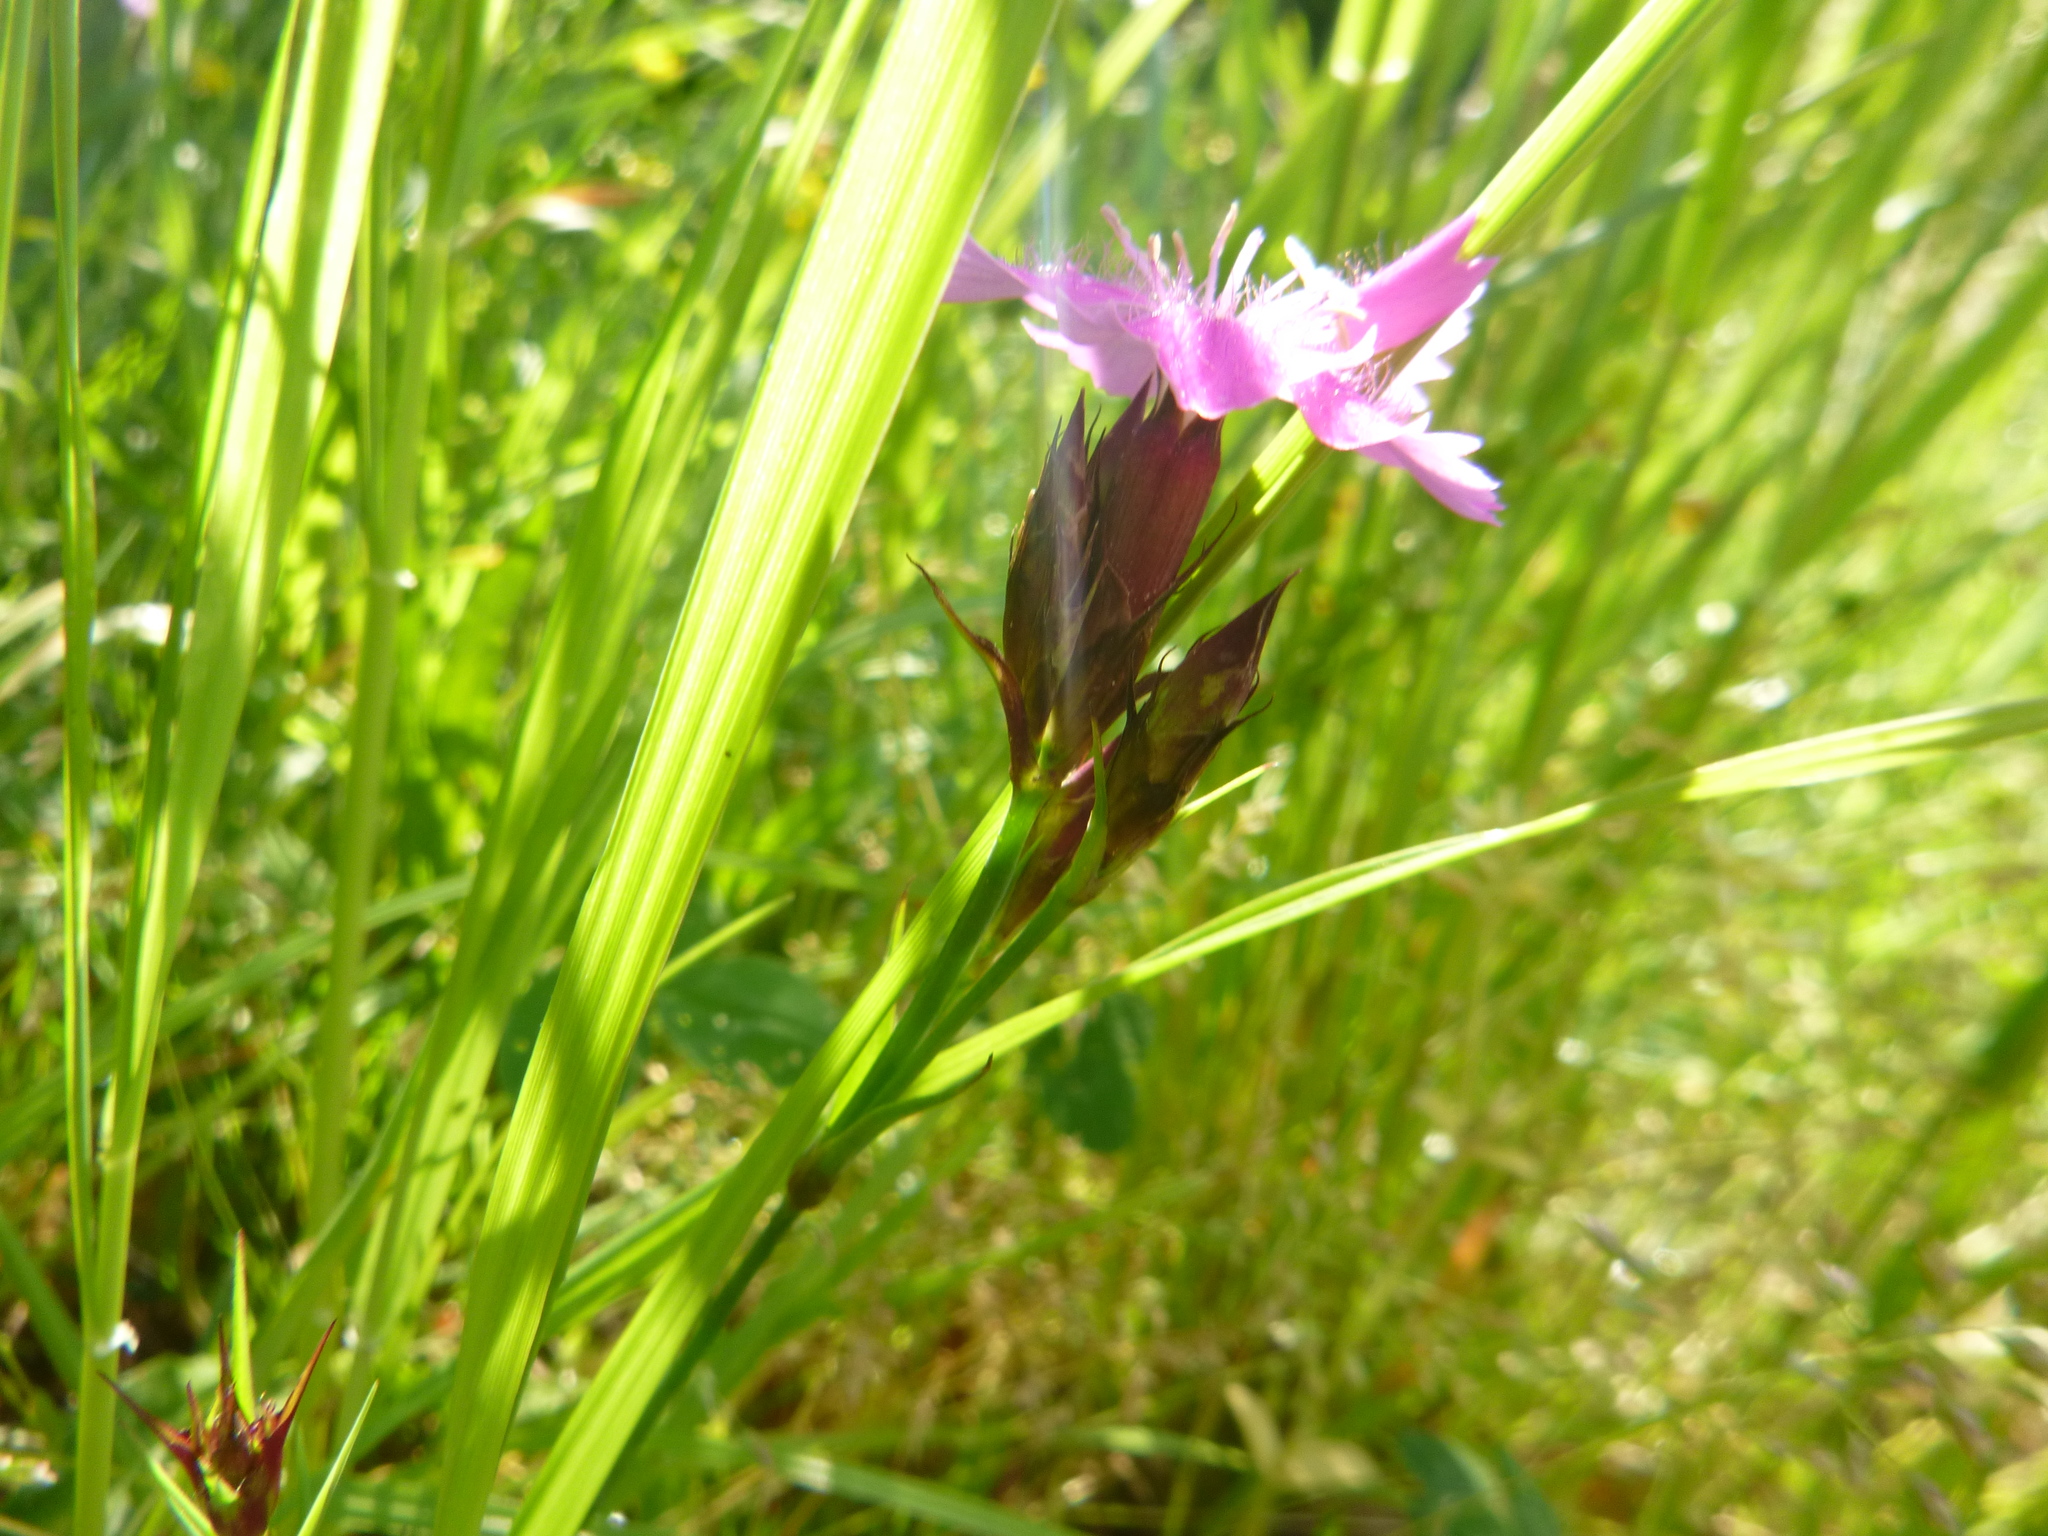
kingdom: Plantae
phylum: Tracheophyta
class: Magnoliopsida
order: Caryophyllales
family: Caryophyllaceae
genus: Dianthus
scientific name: Dianthus carthusianorum
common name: Carthusian pink
